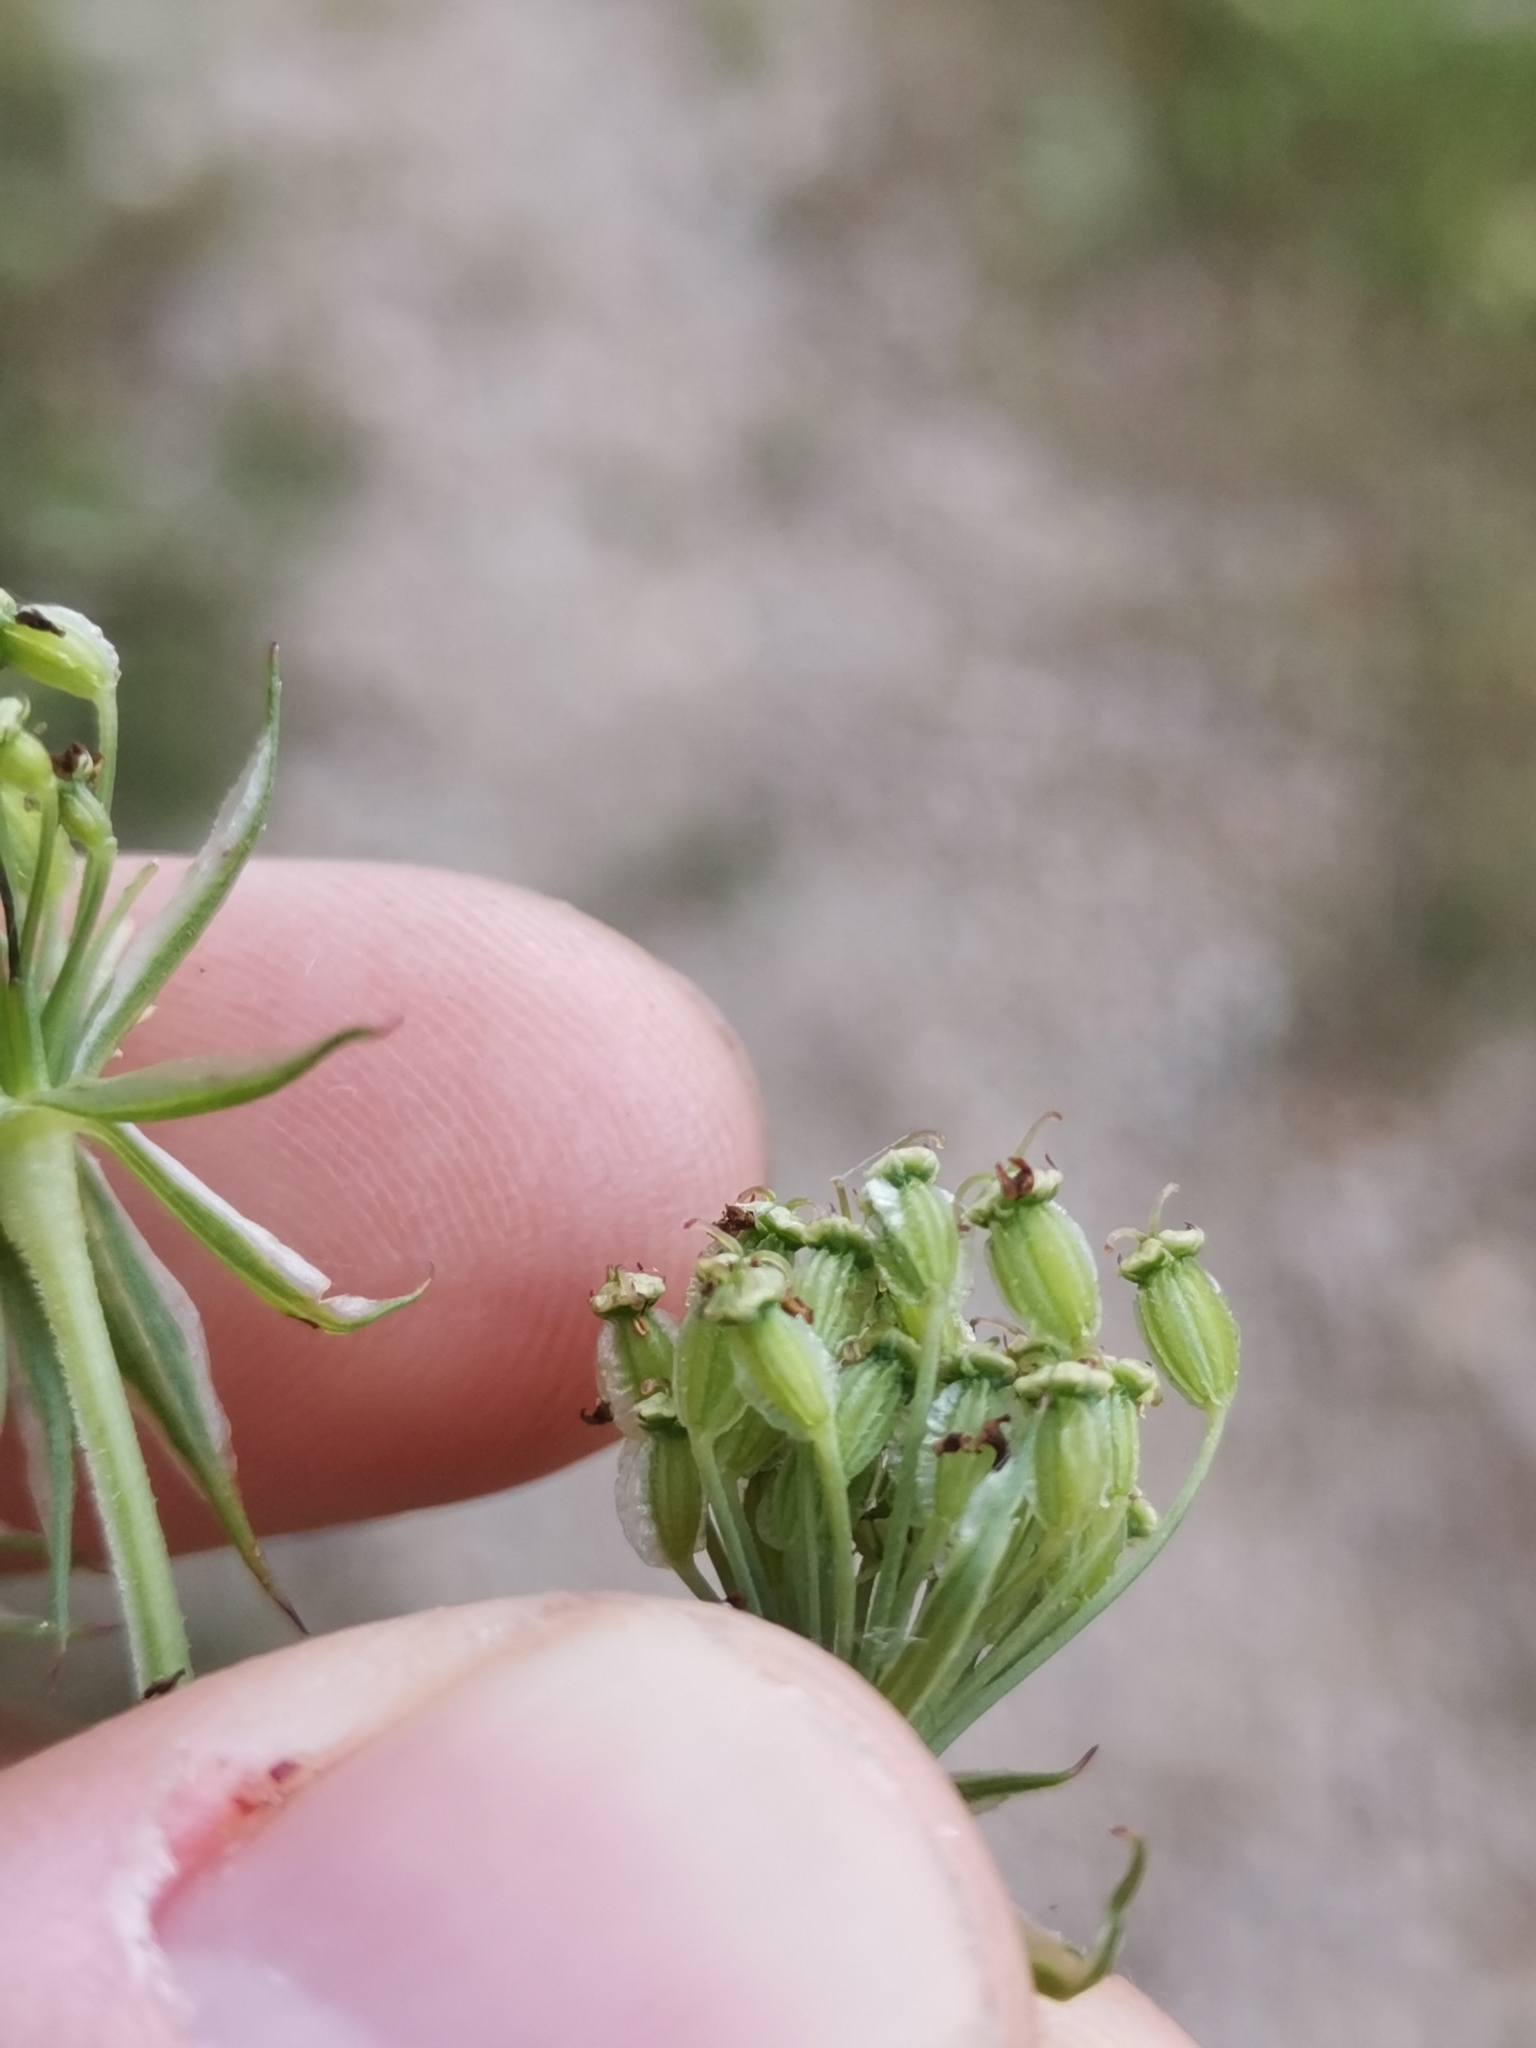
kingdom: Plantae
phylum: Tracheophyta
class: Magnoliopsida
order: Apiales
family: Apiaceae
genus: Silphiodaucus
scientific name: Silphiodaucus prutenicus
